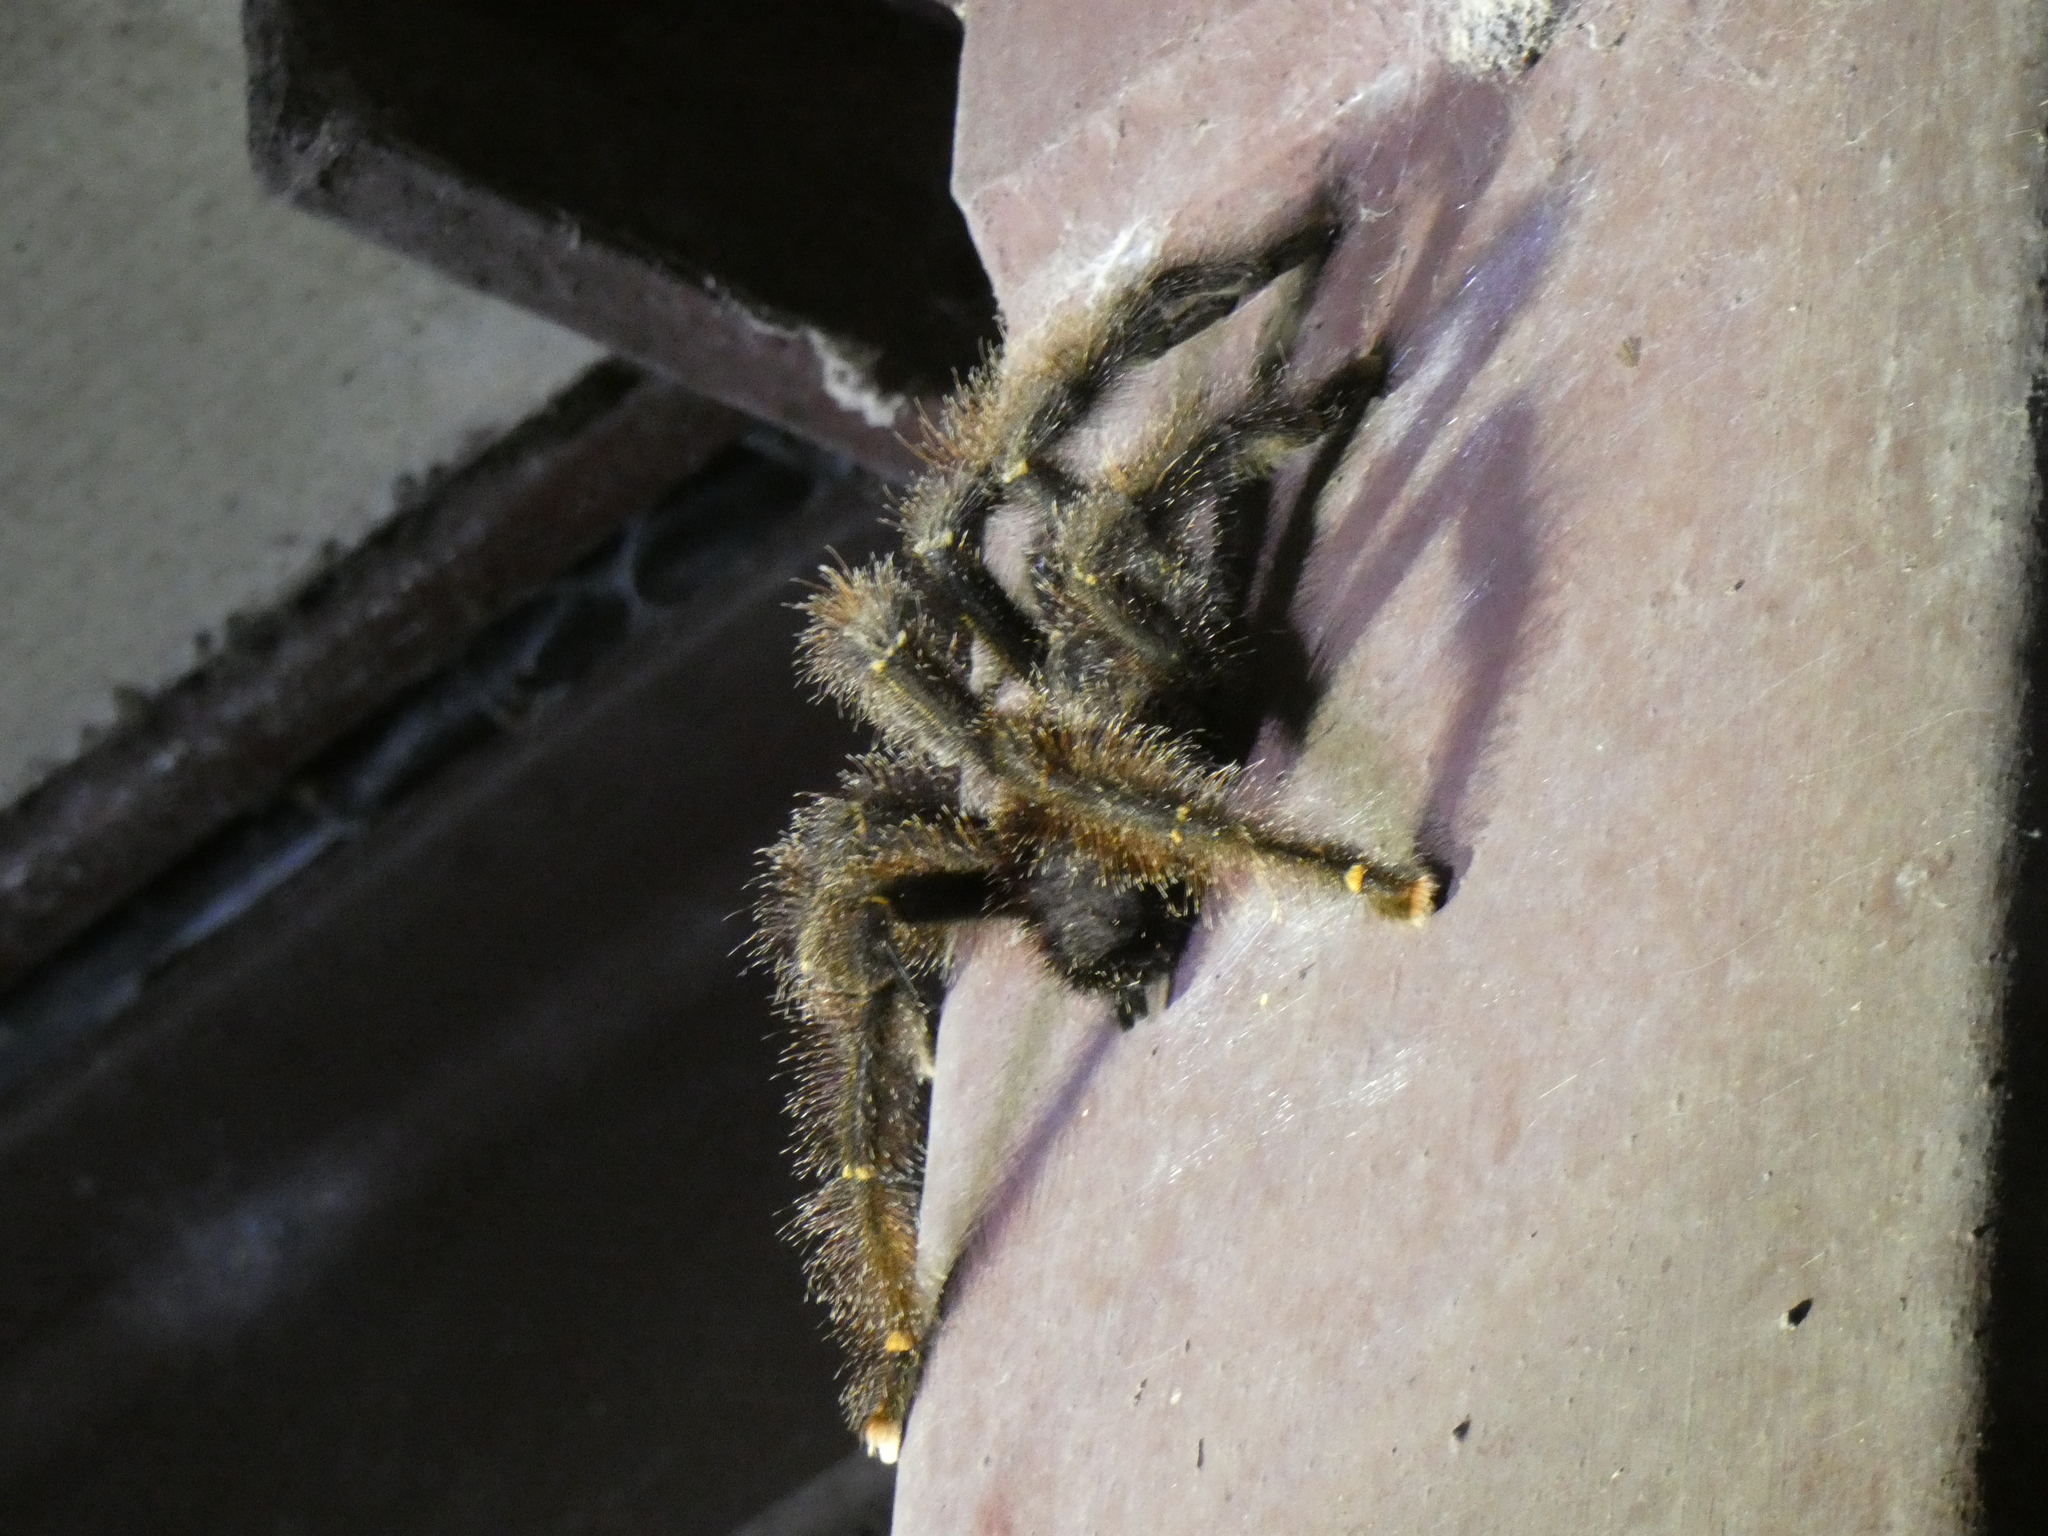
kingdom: Animalia
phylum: Arthropoda
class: Arachnida
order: Araneae
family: Theraphosidae
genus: Avicularia
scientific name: Avicularia juruensis
